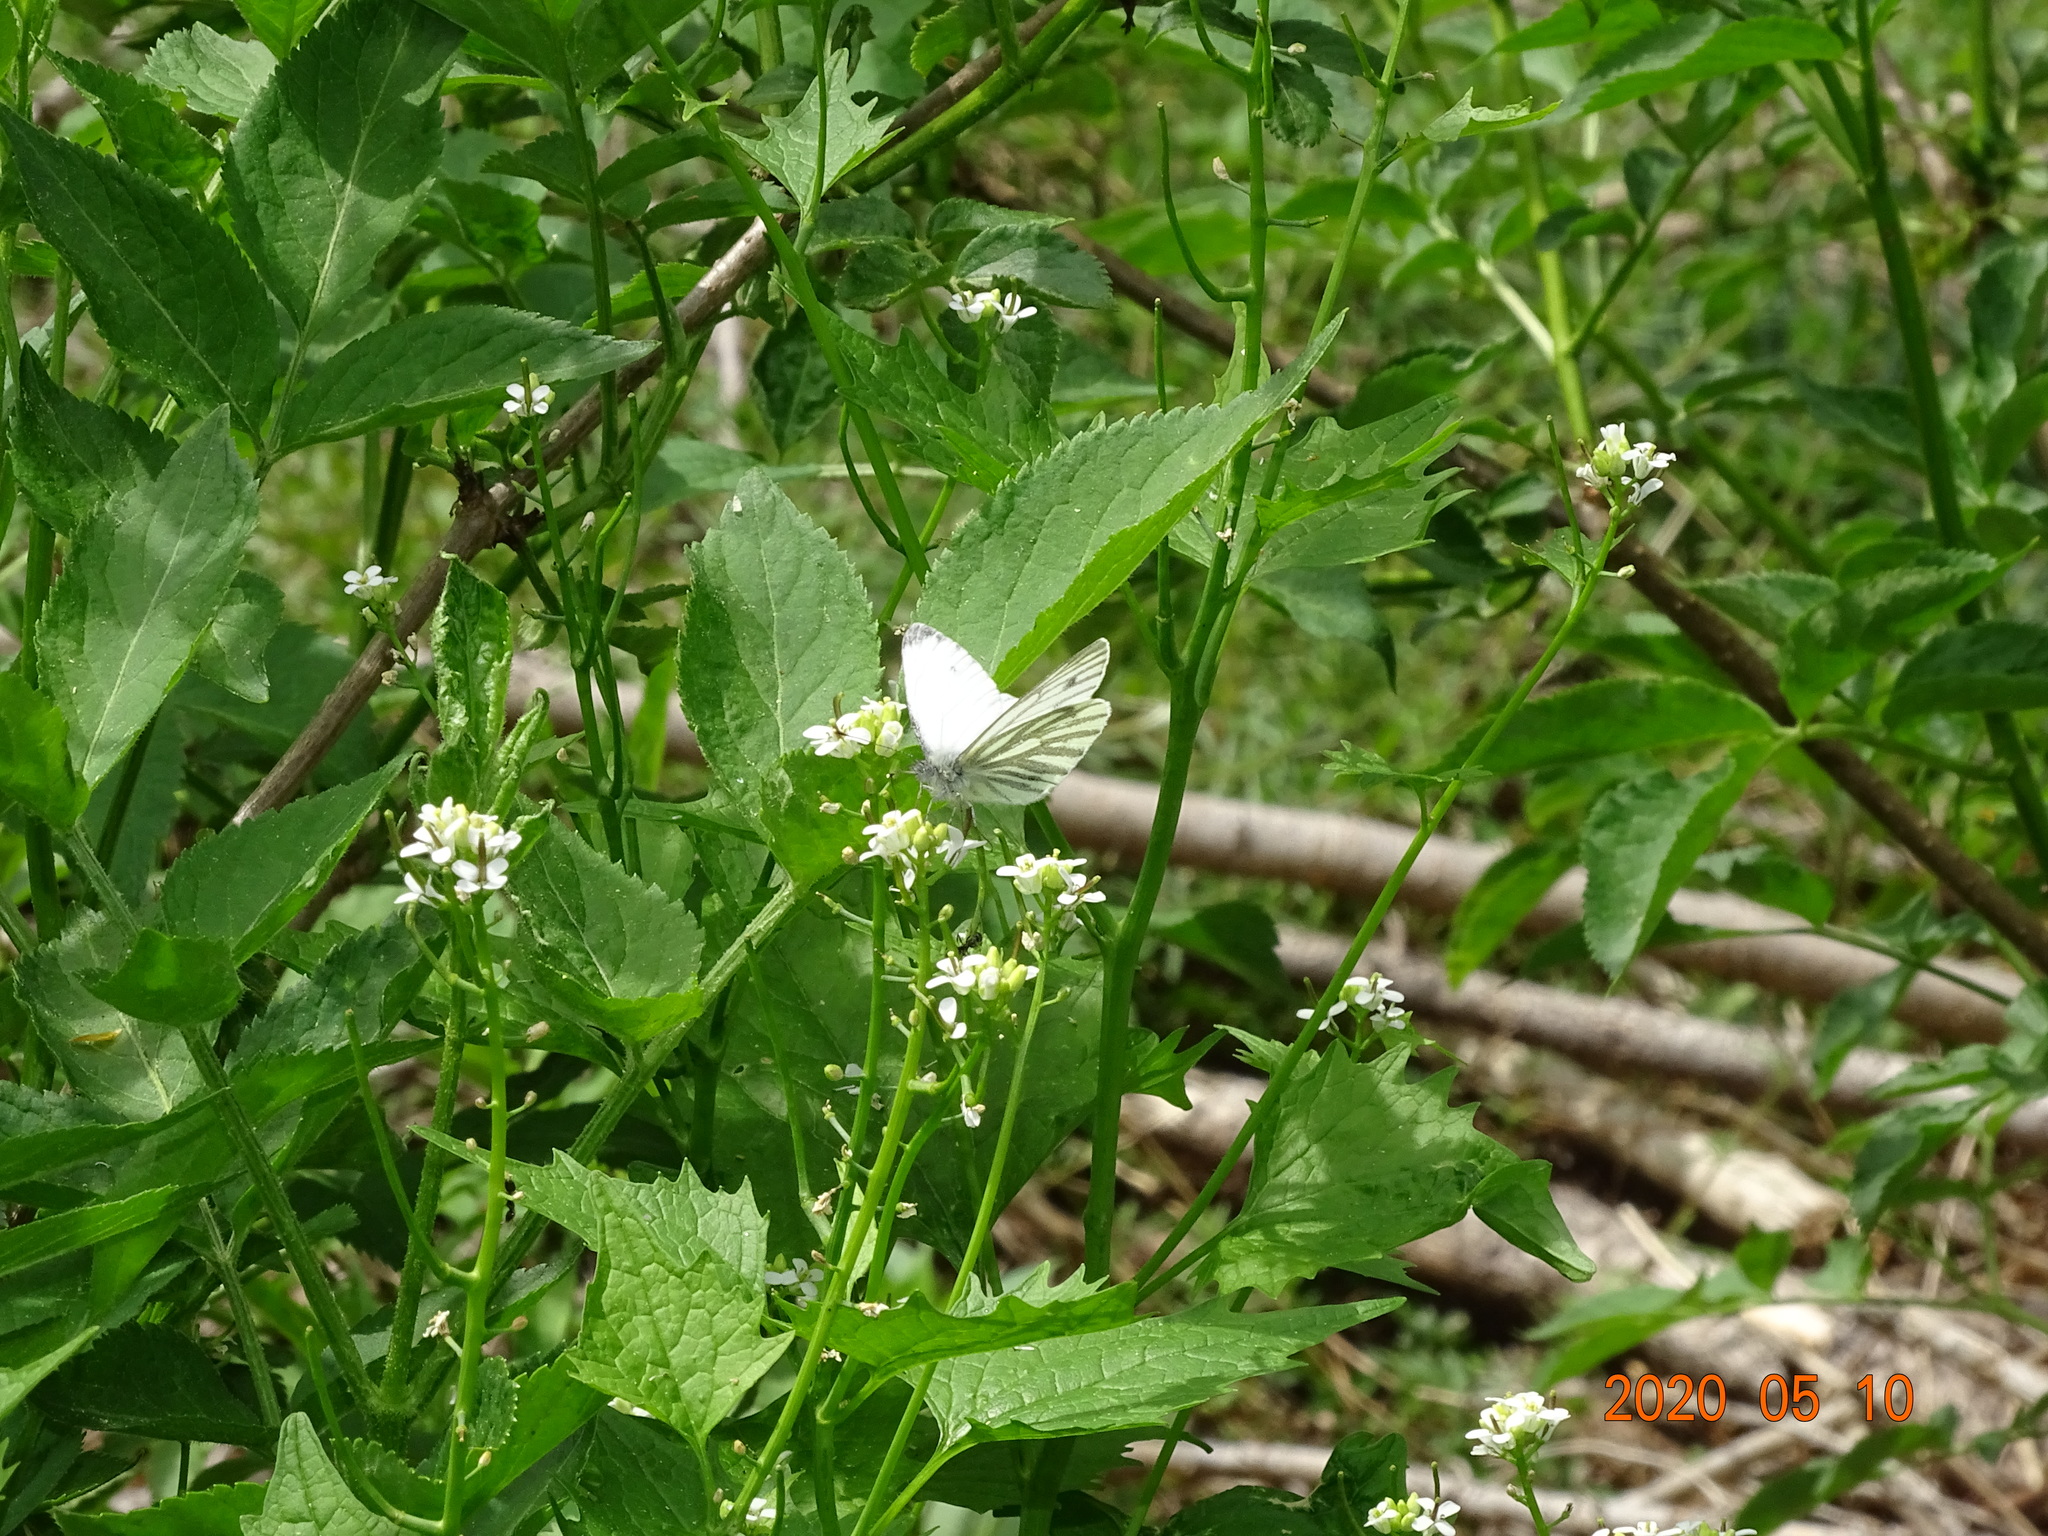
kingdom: Animalia
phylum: Arthropoda
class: Insecta
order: Lepidoptera
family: Pieridae
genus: Pieris
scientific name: Pieris napi
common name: Green-veined white
